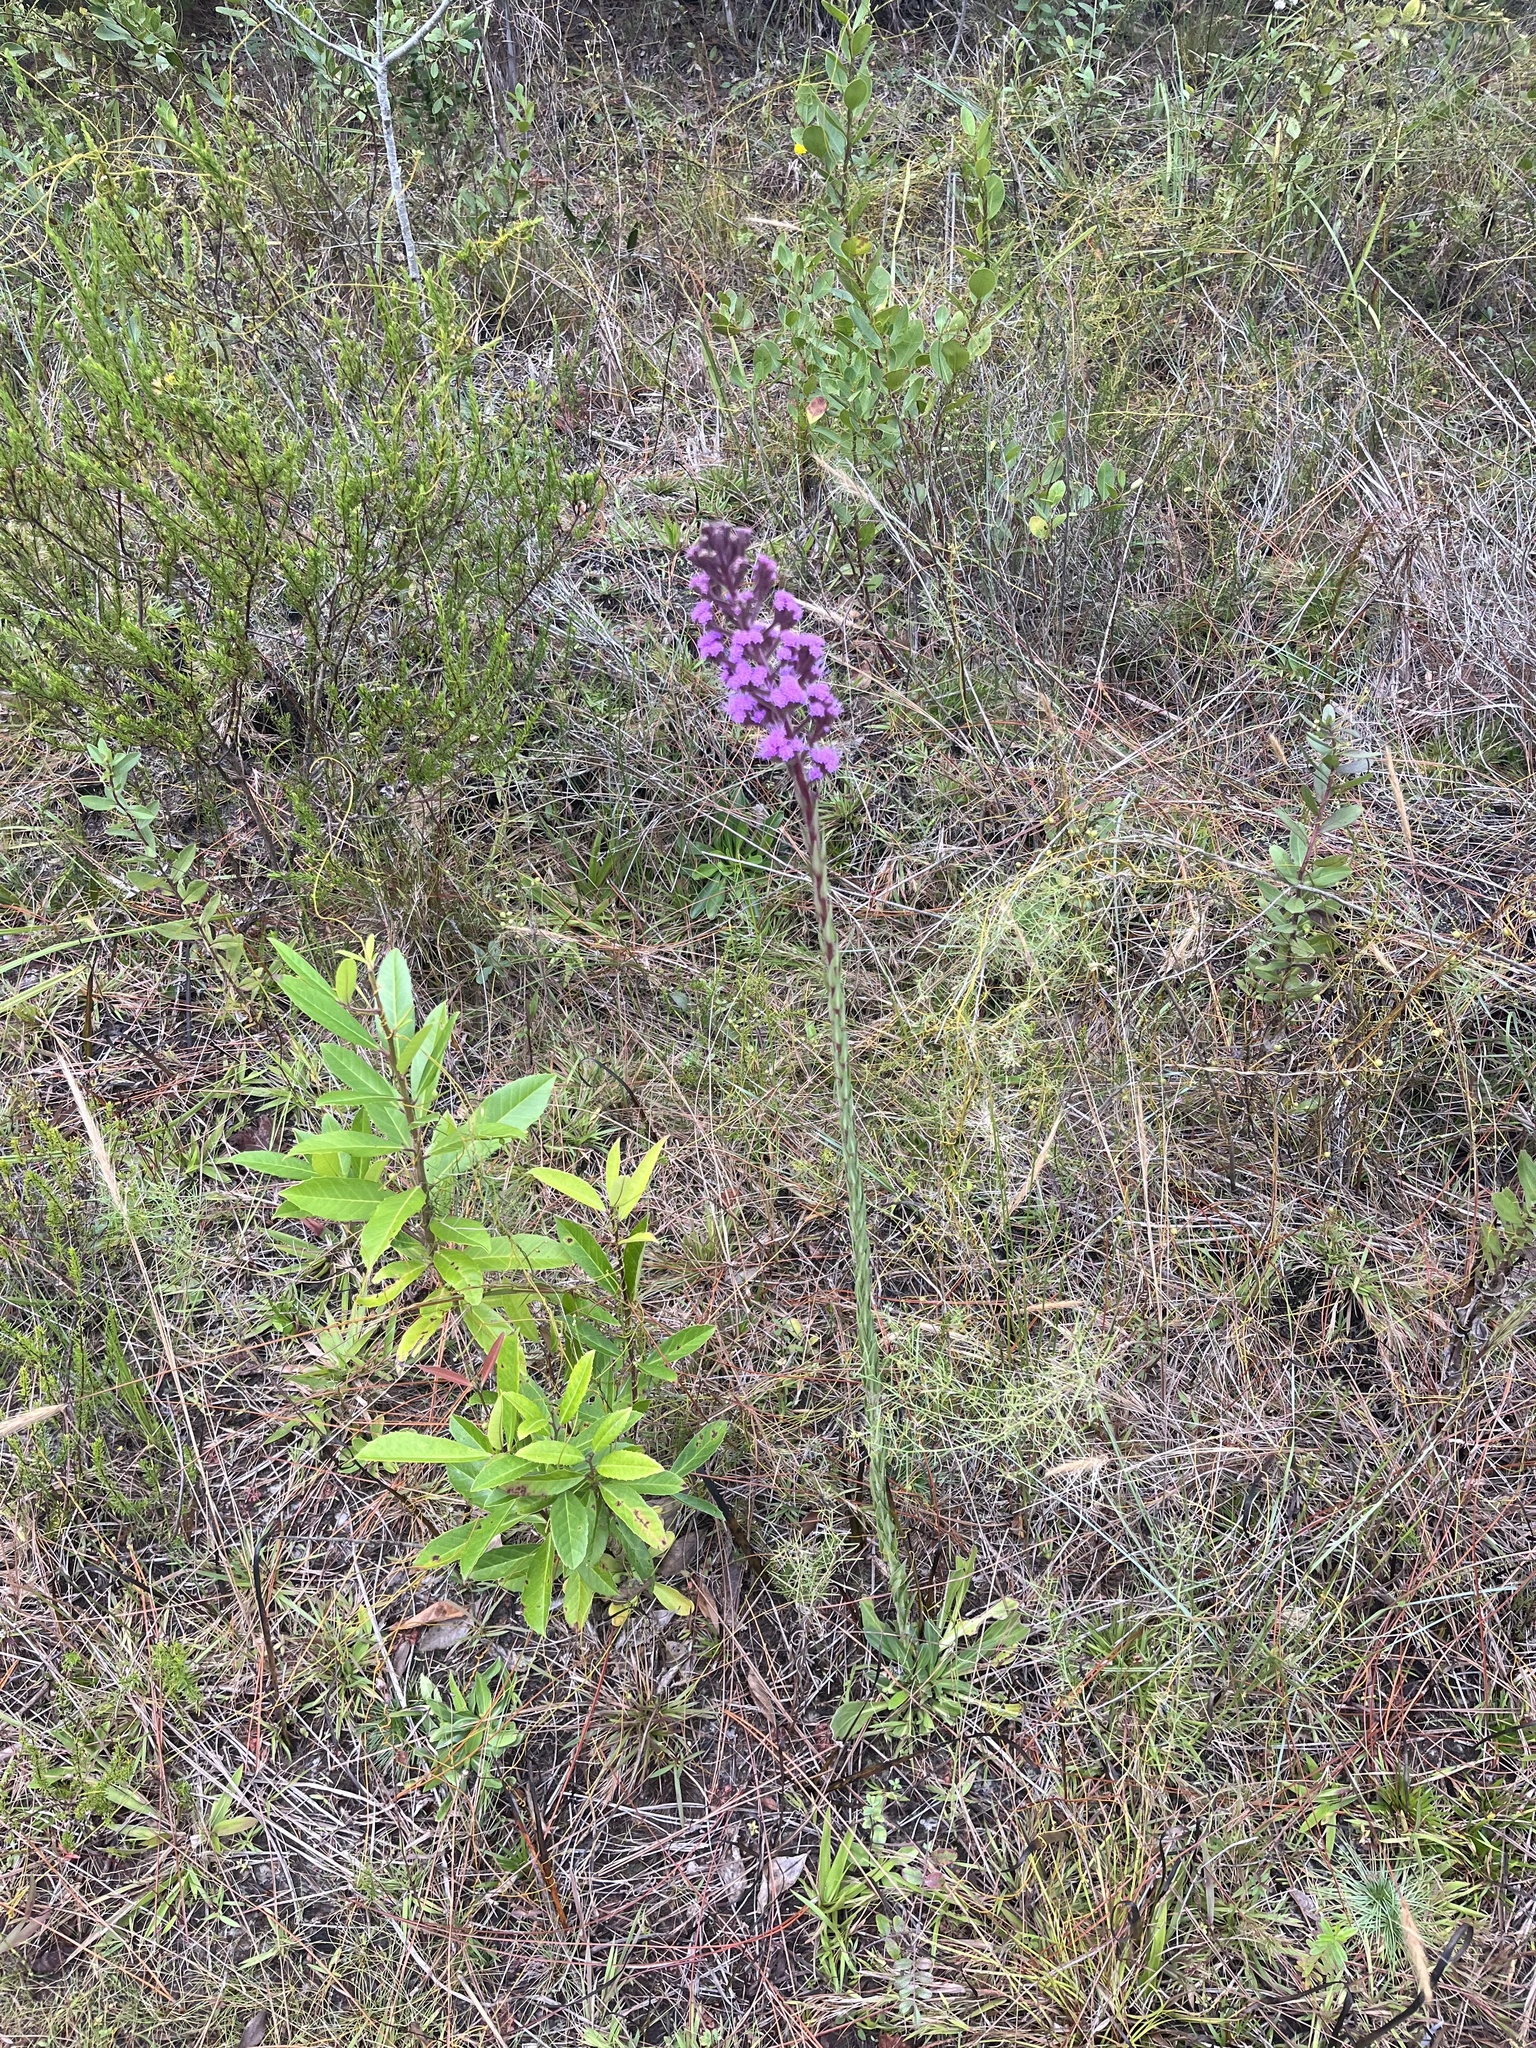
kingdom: Plantae
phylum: Tracheophyta
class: Magnoliopsida
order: Asterales
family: Asteraceae
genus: Carphephorus
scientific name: Carphephorus paniculatus
